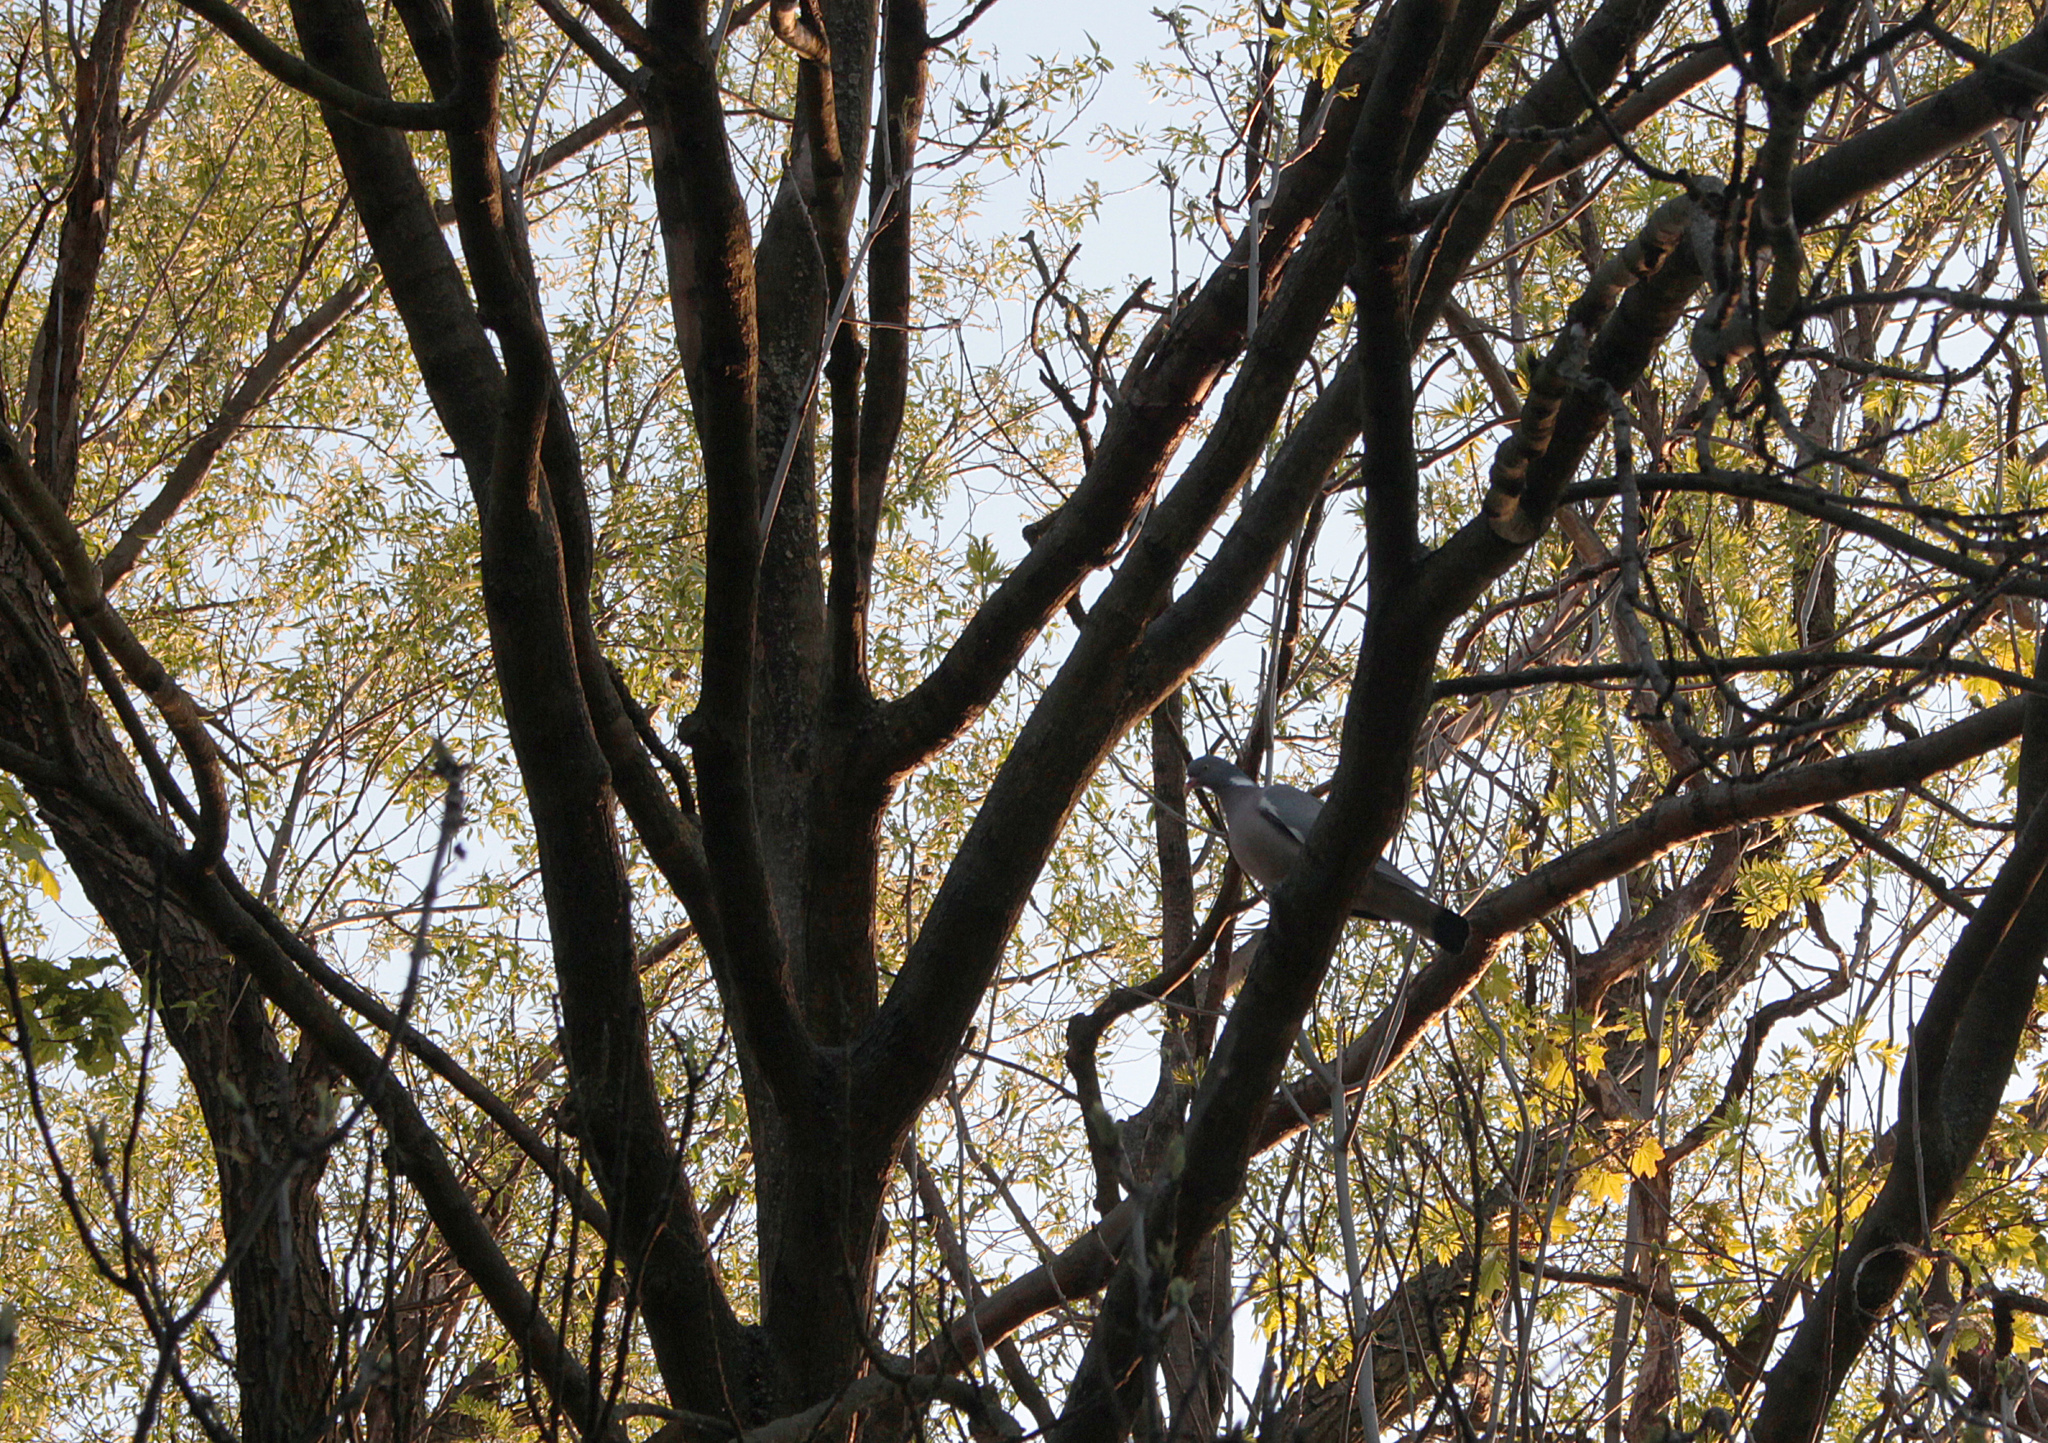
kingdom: Animalia
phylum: Chordata
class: Aves
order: Columbiformes
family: Columbidae
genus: Columba
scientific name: Columba palumbus
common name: Common wood pigeon
